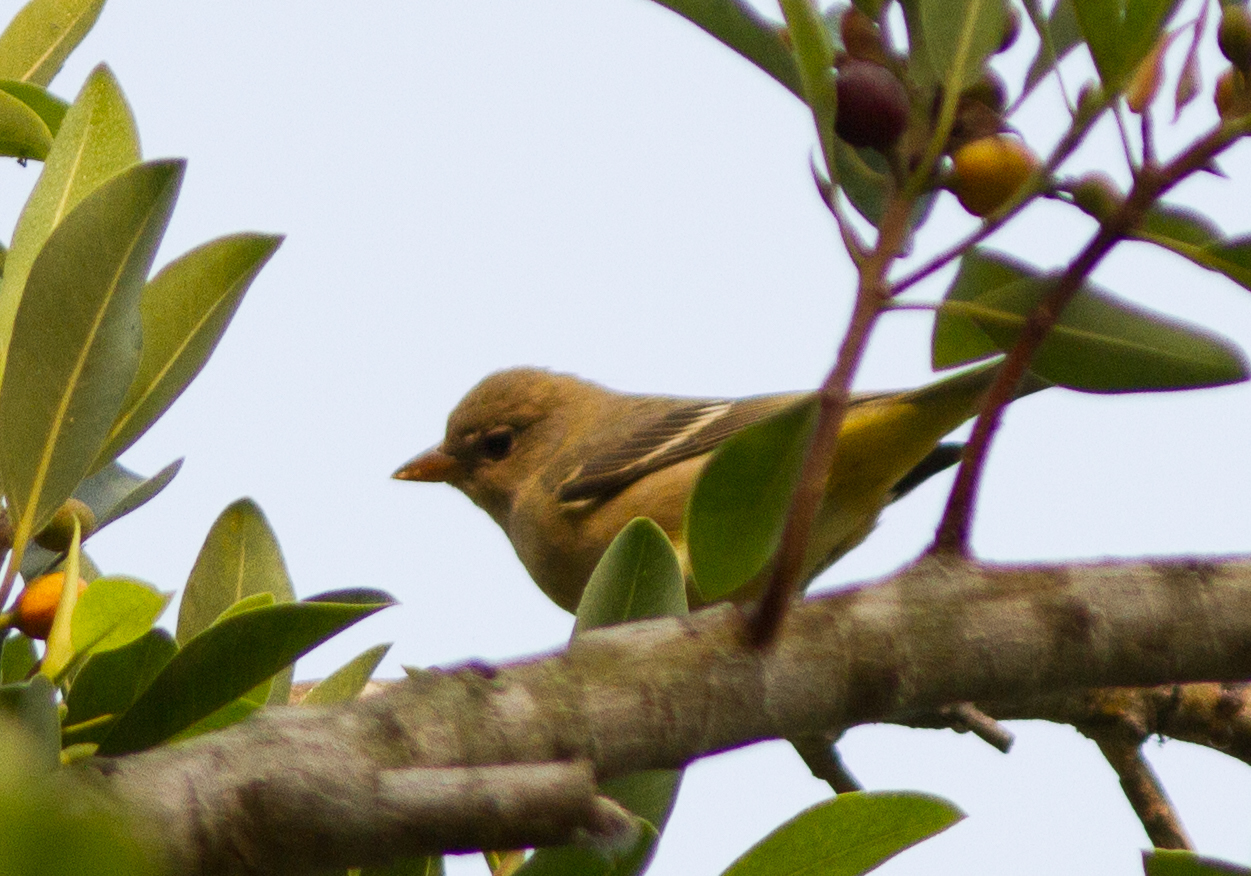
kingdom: Animalia
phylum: Chordata
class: Aves
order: Passeriformes
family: Cardinalidae
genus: Piranga
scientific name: Piranga ludoviciana
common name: Western tanager
